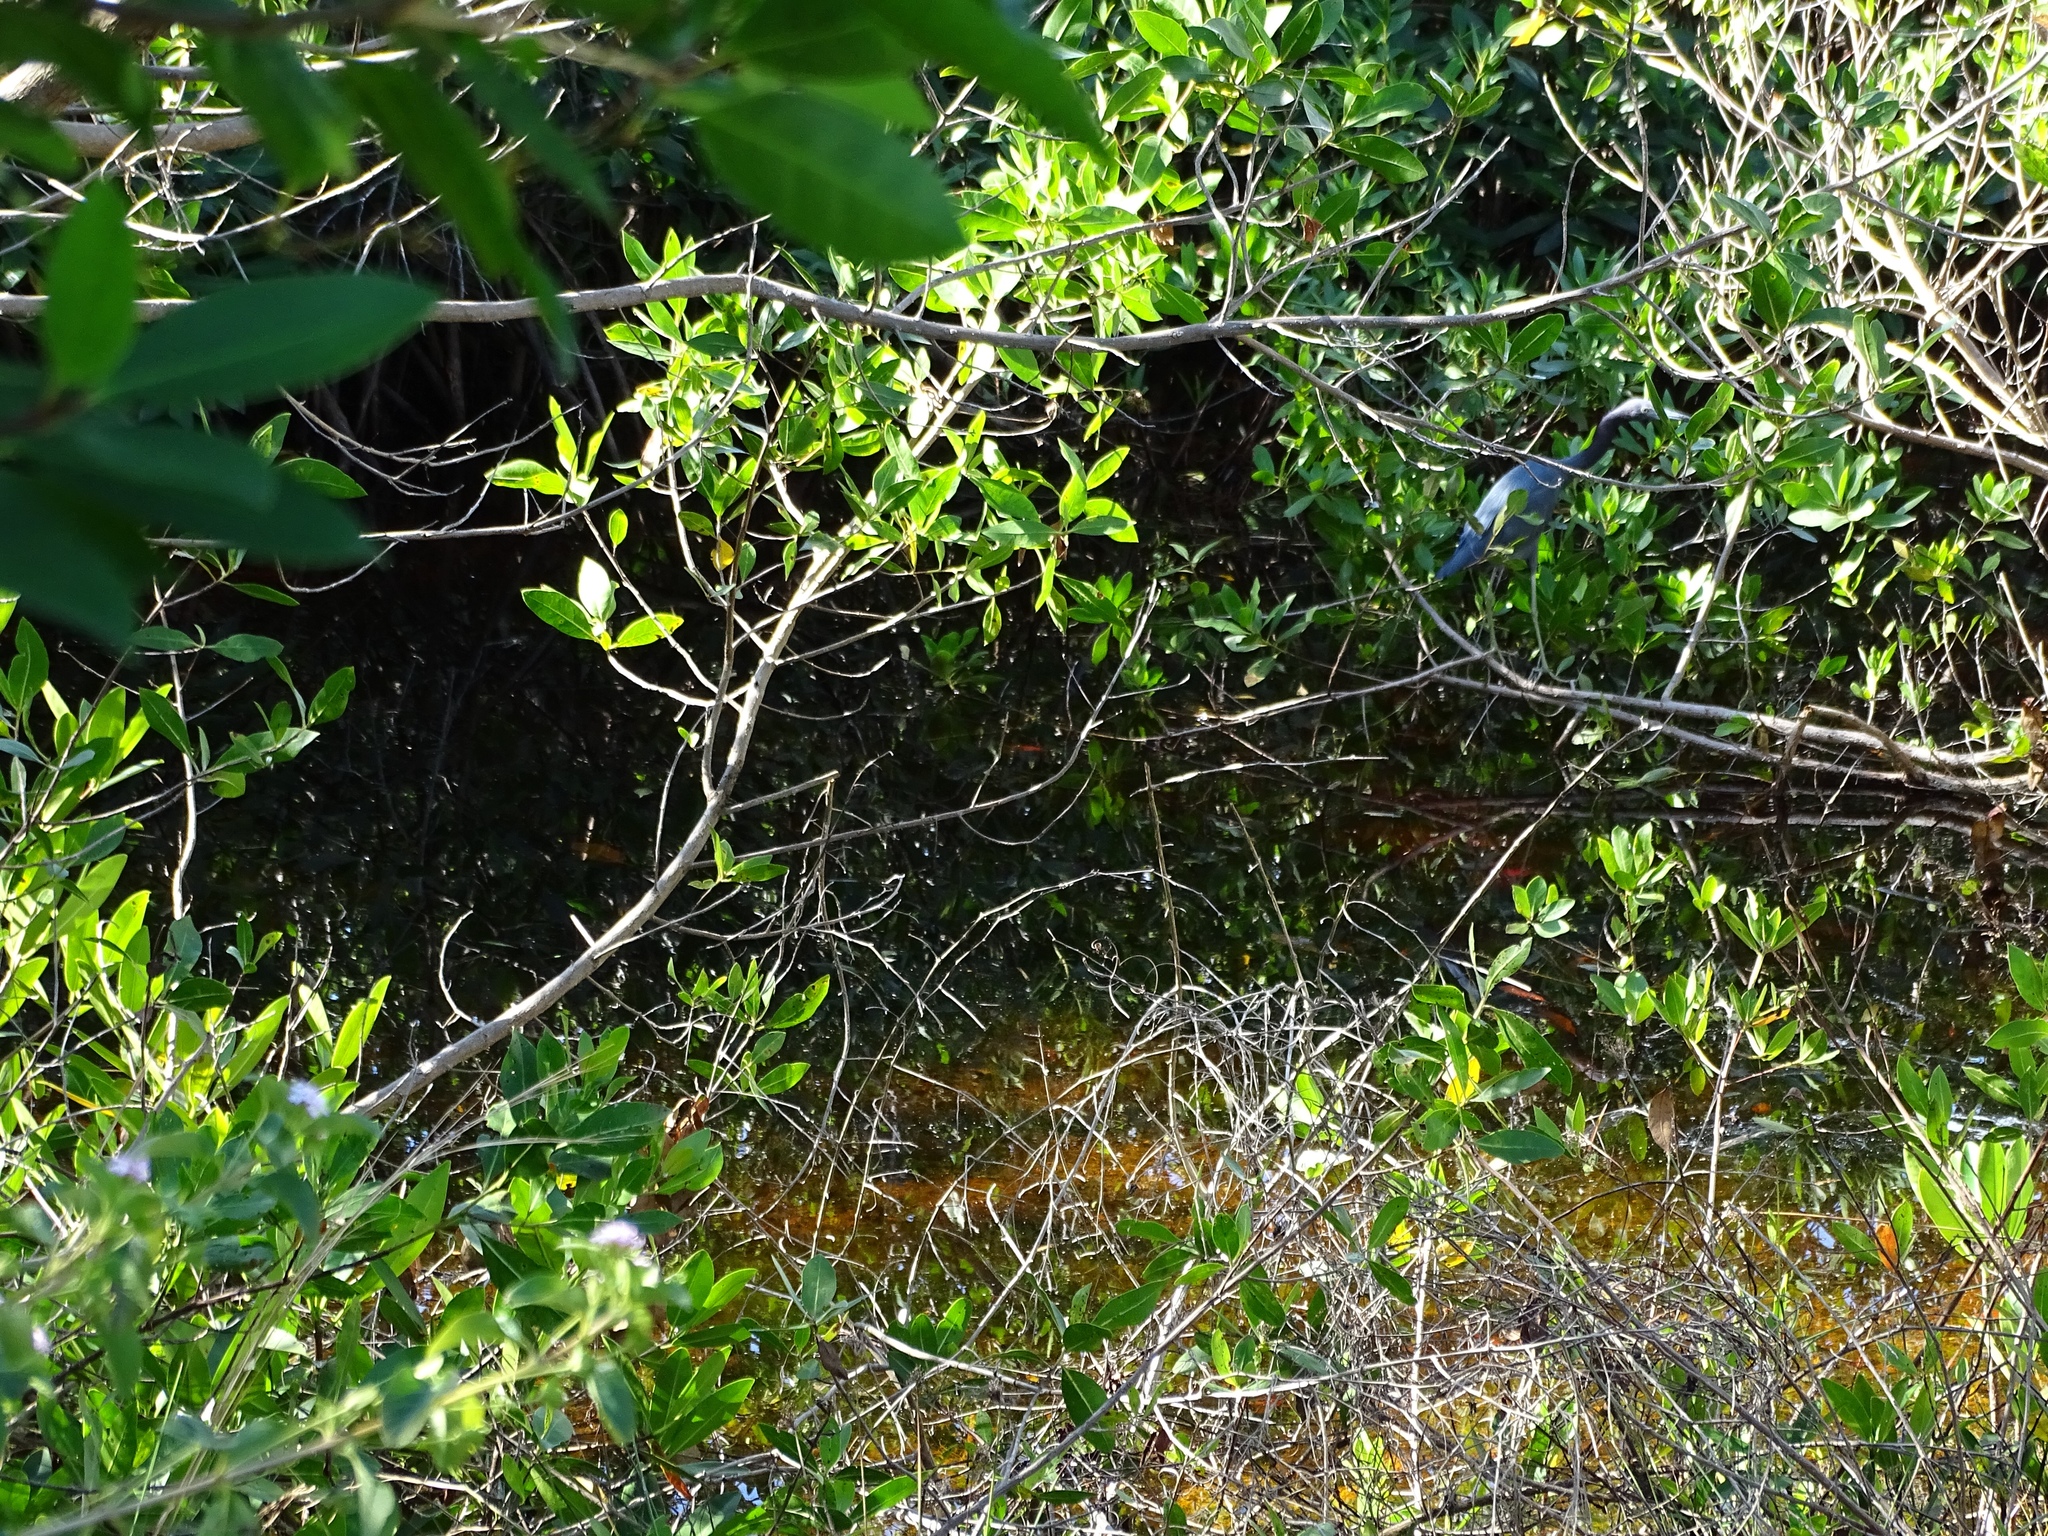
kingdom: Plantae
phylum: Tracheophyta
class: Magnoliopsida
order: Malpighiales
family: Rhizophoraceae
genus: Rhizophora
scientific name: Rhizophora mangle
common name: Red mangrove
